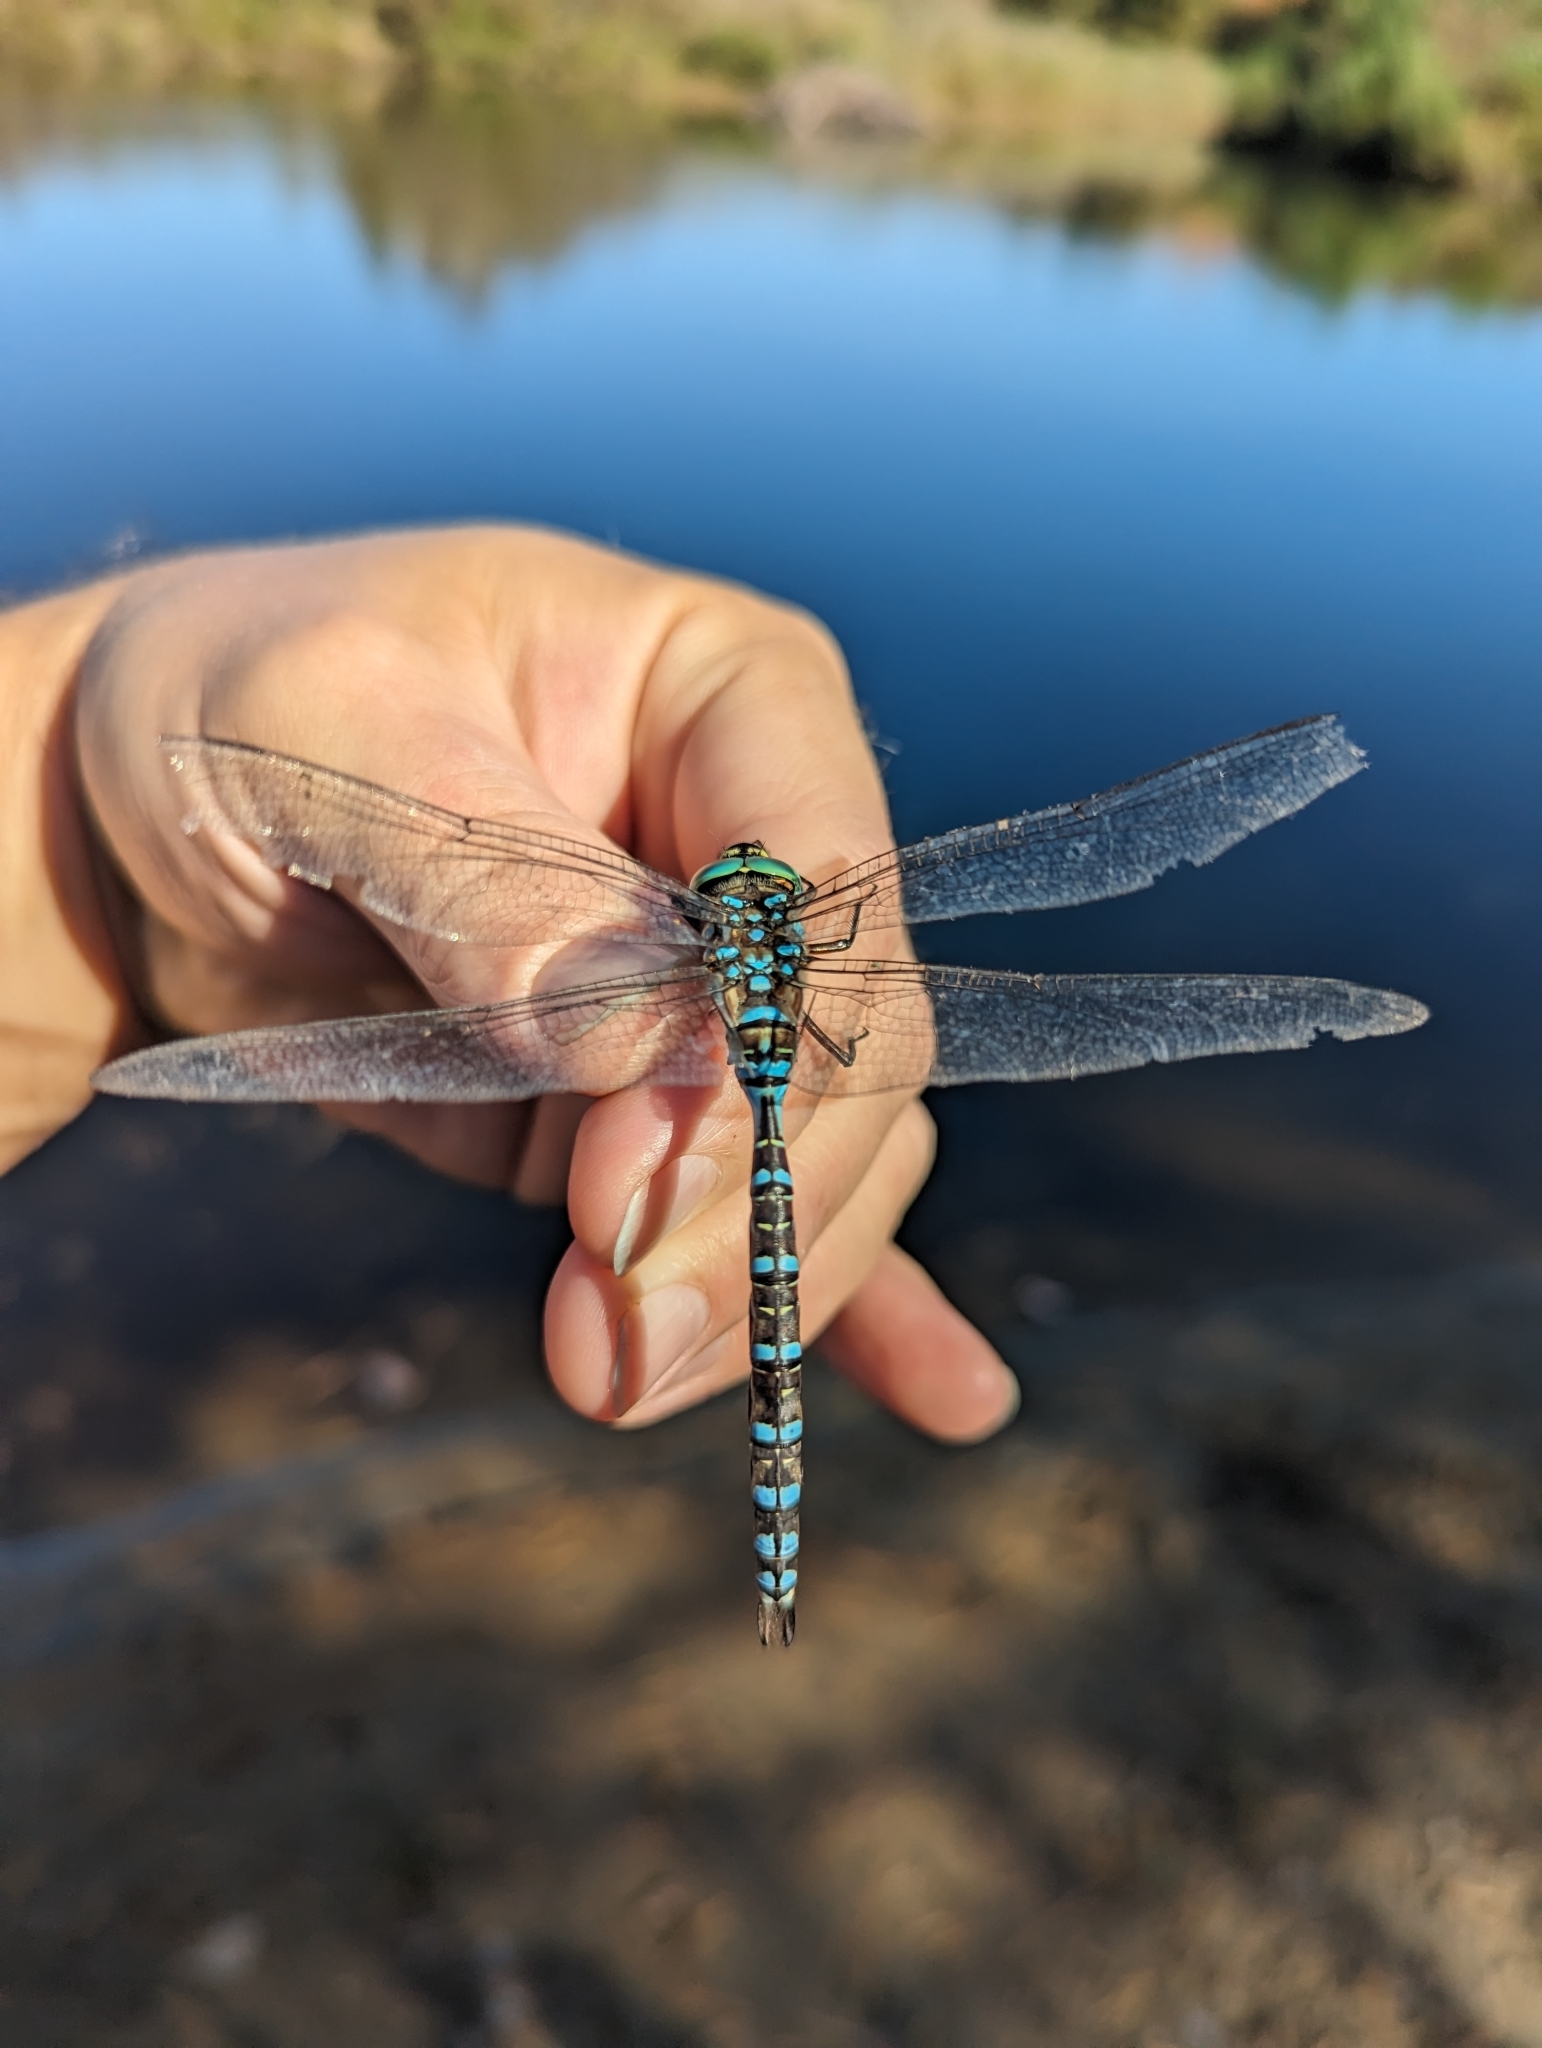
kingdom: Animalia
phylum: Arthropoda
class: Insecta
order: Odonata
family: Aeshnidae
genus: Aeshna
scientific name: Aeshna eremita
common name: Lake darner
